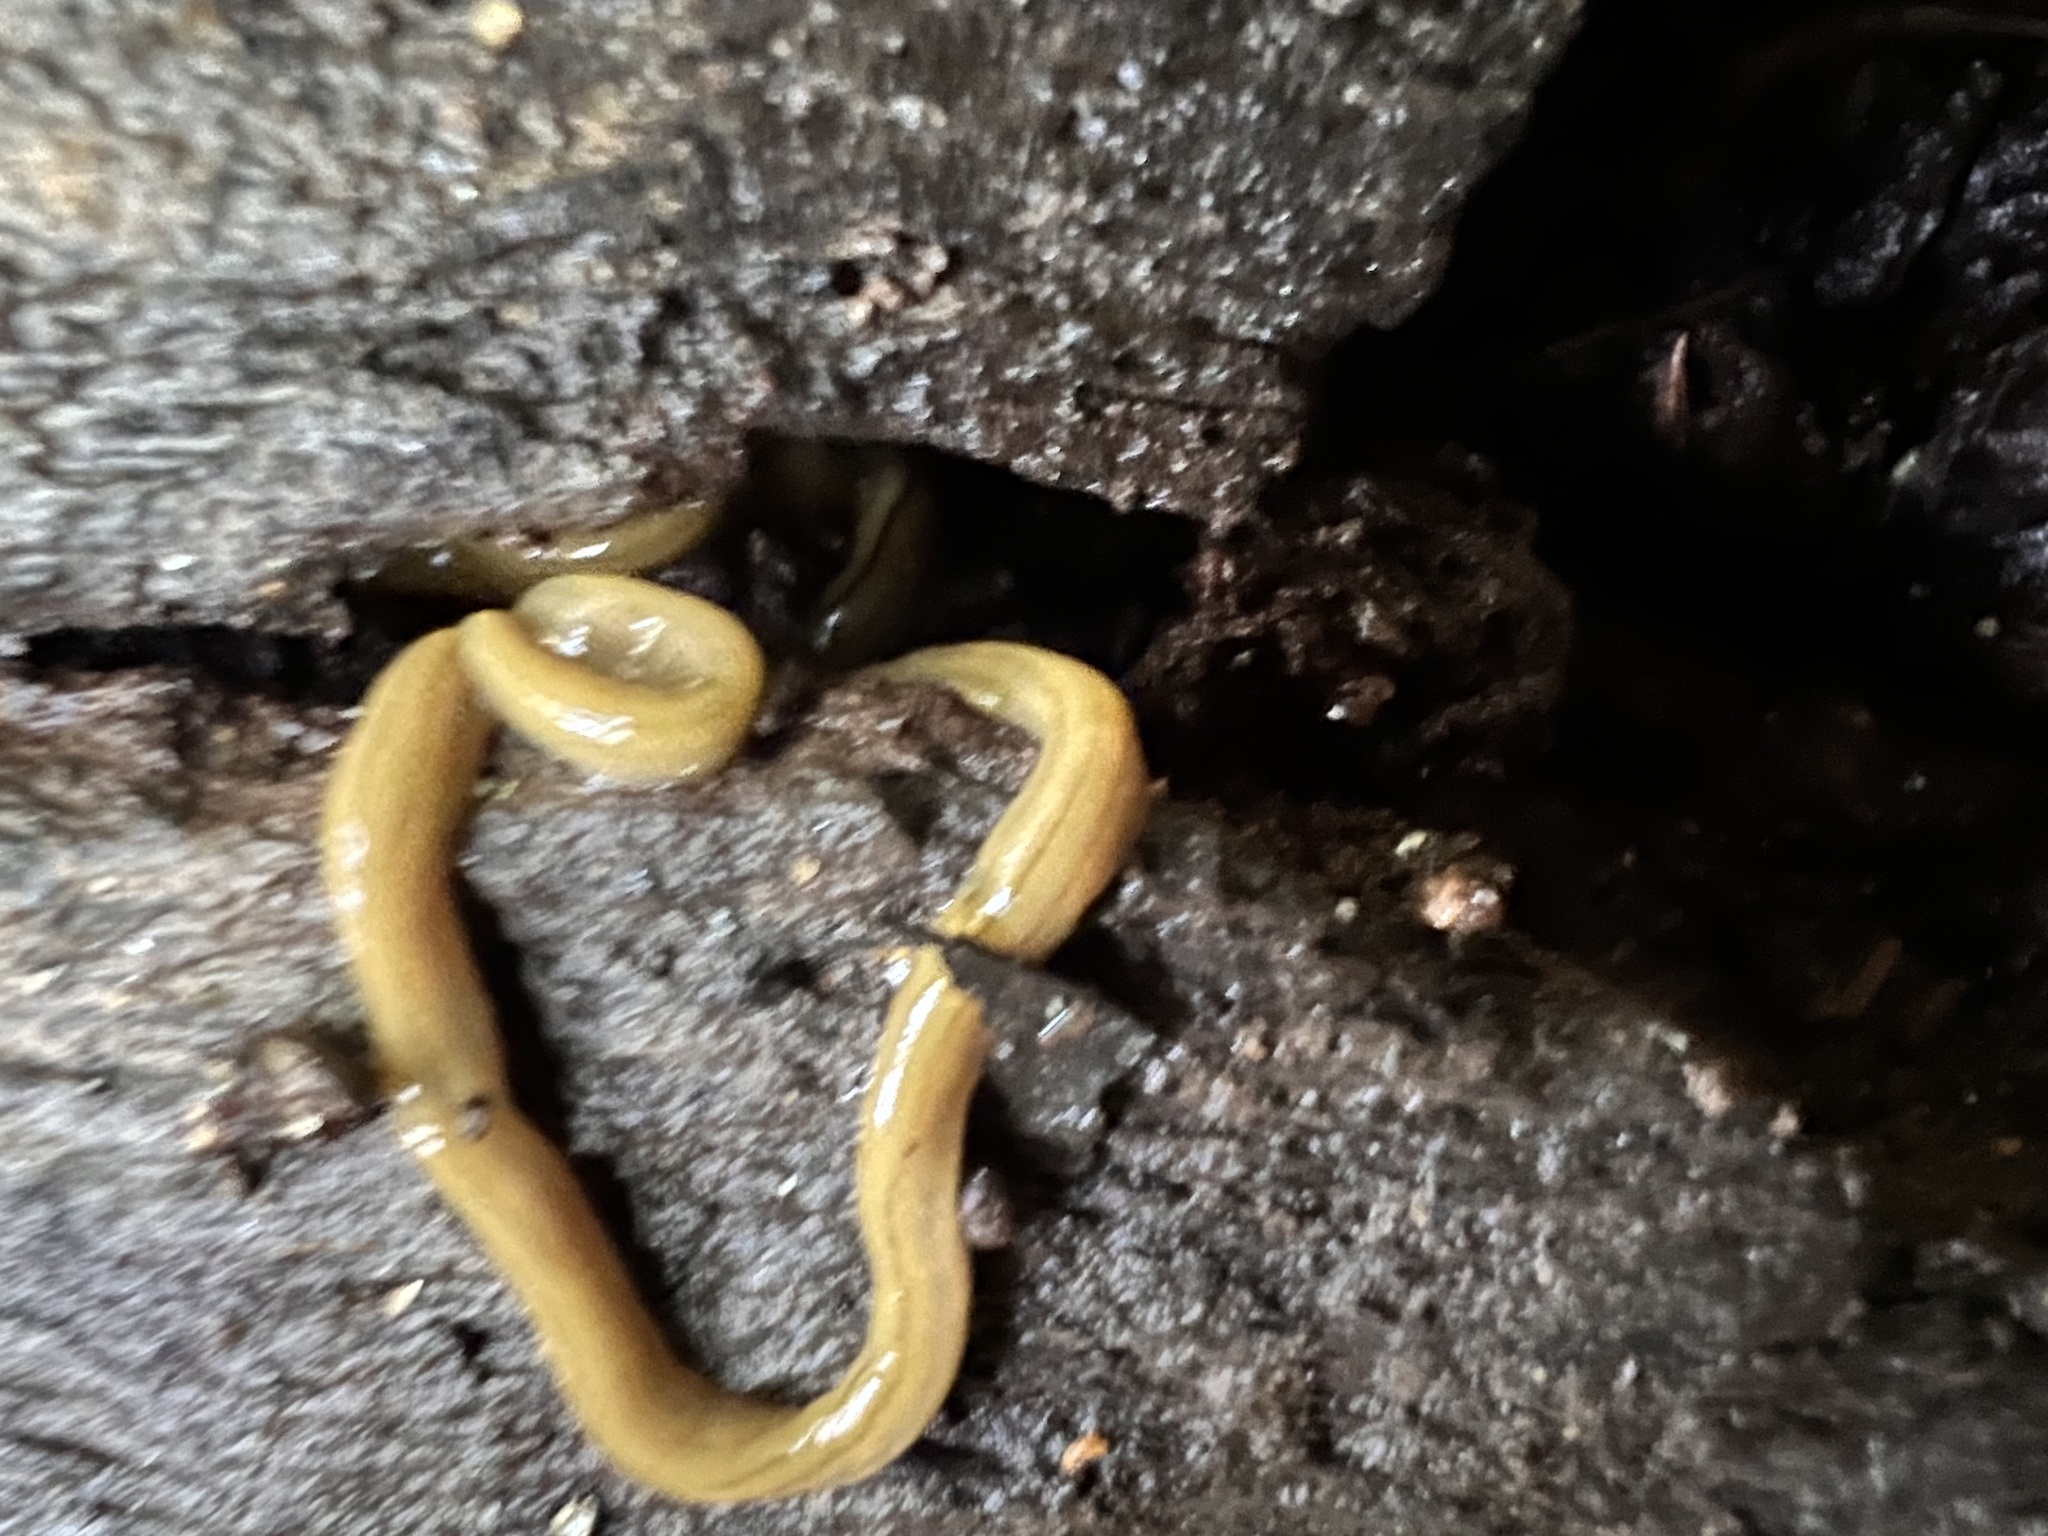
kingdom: Animalia
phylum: Platyhelminthes
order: Tricladida
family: Geoplanidae
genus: Diversibipalium
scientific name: Diversibipalium multilineatum
